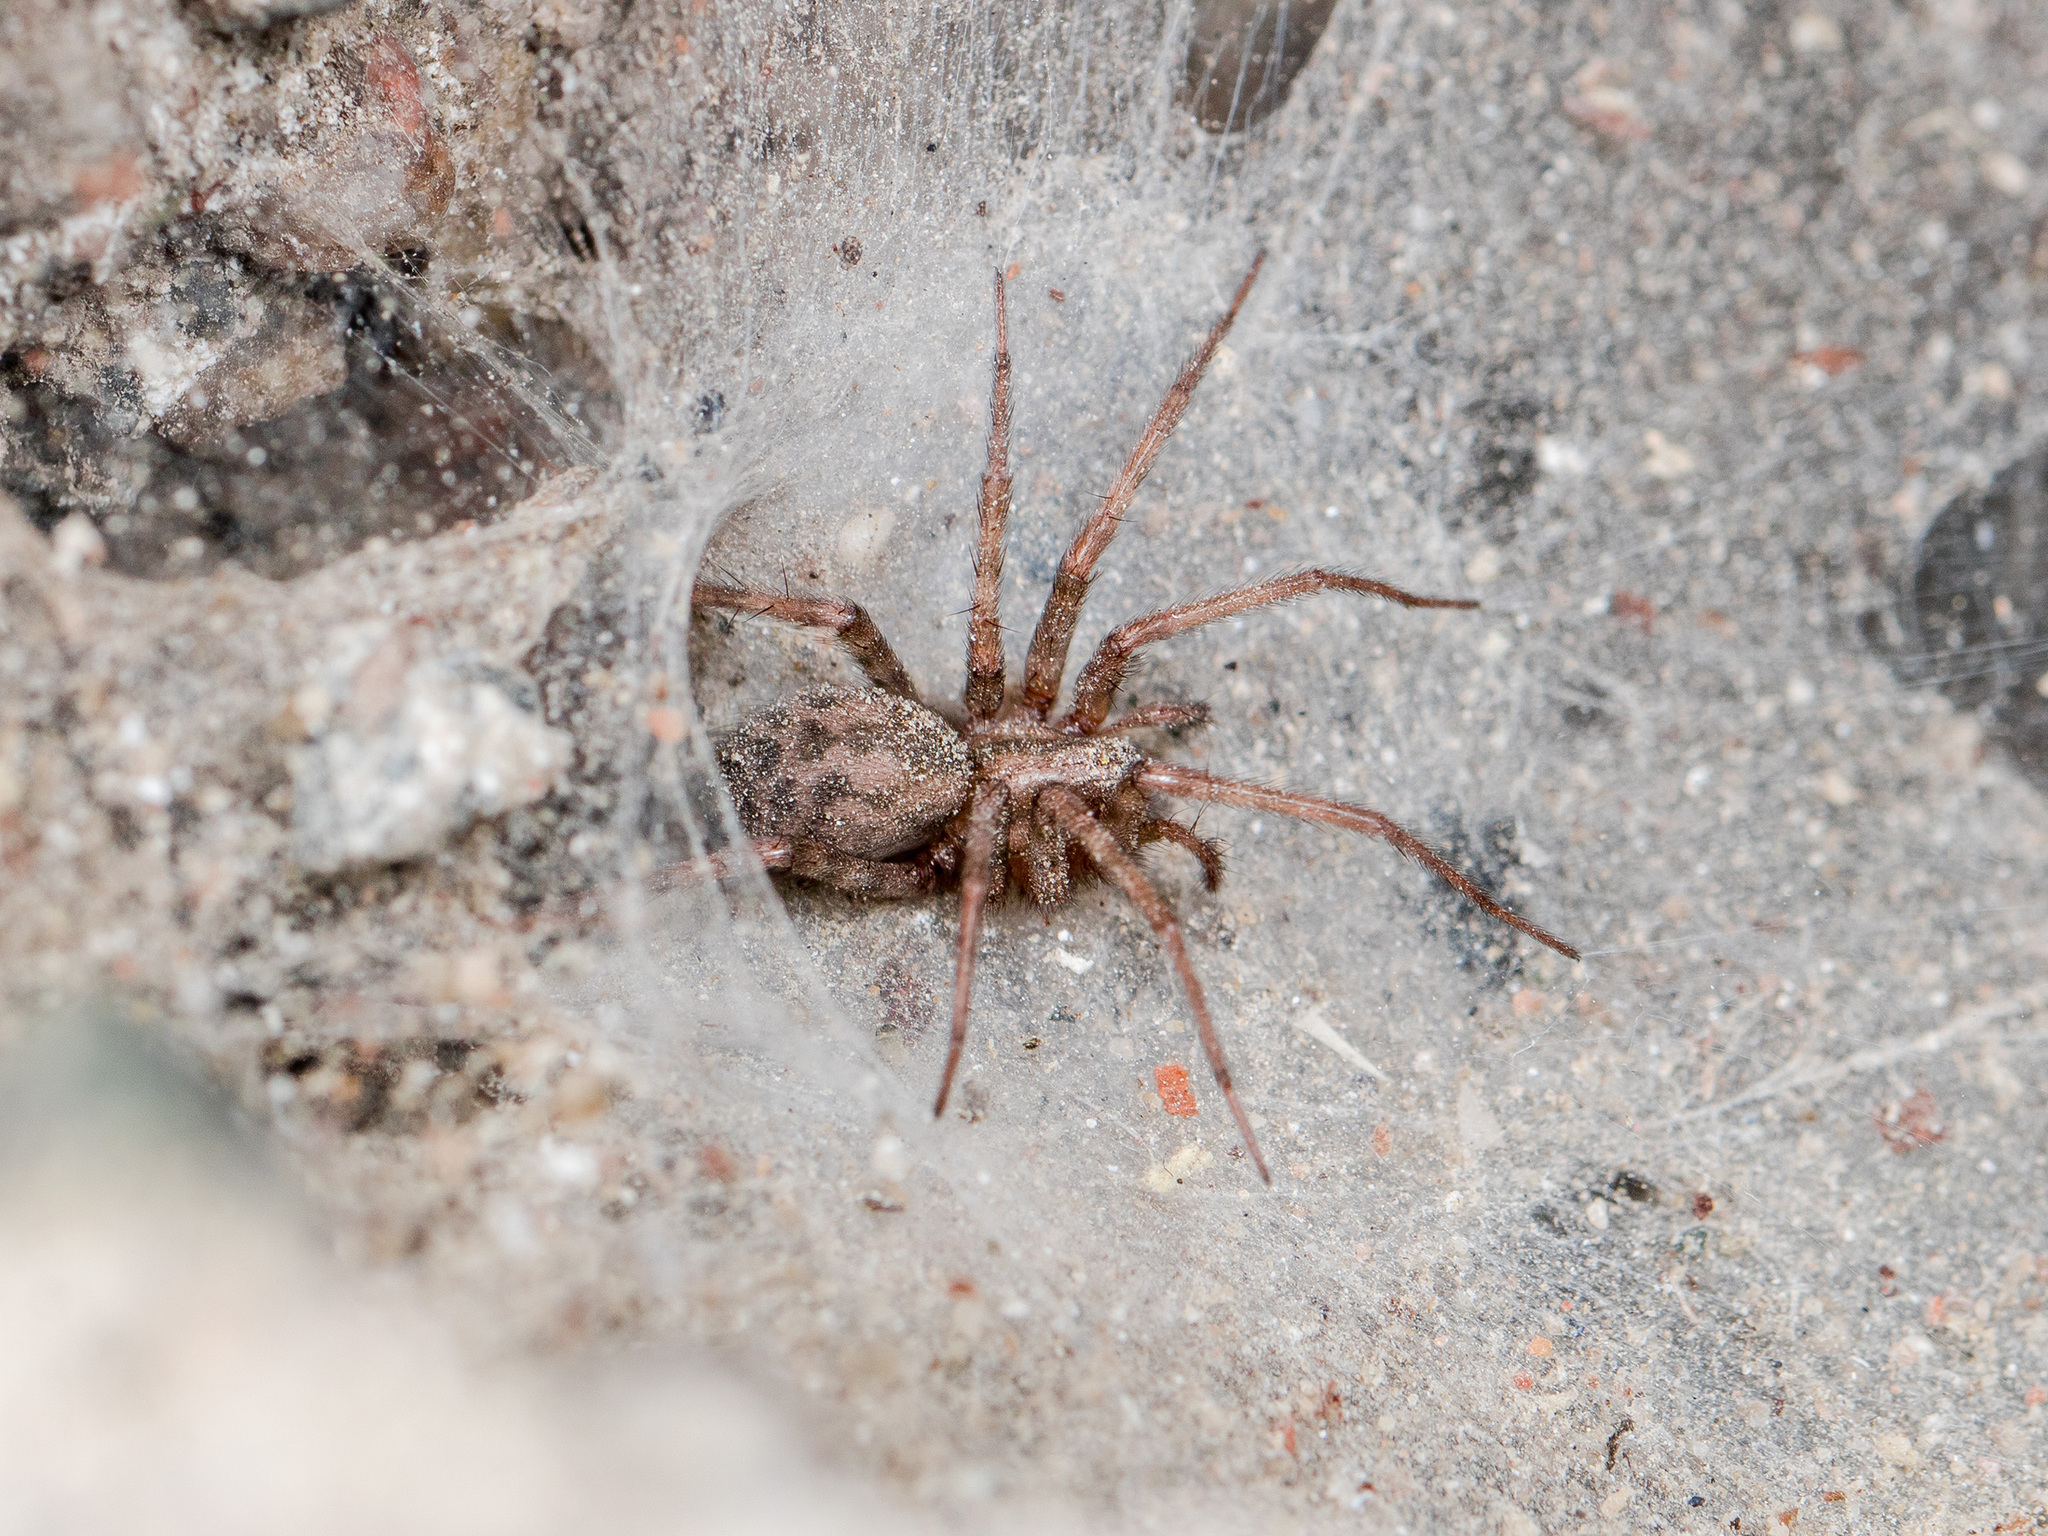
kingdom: Animalia
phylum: Arthropoda
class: Arachnida
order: Araneae
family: Agelenidae
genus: Tegenaria
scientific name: Tegenaria domestica
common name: Barn funnel weaver
